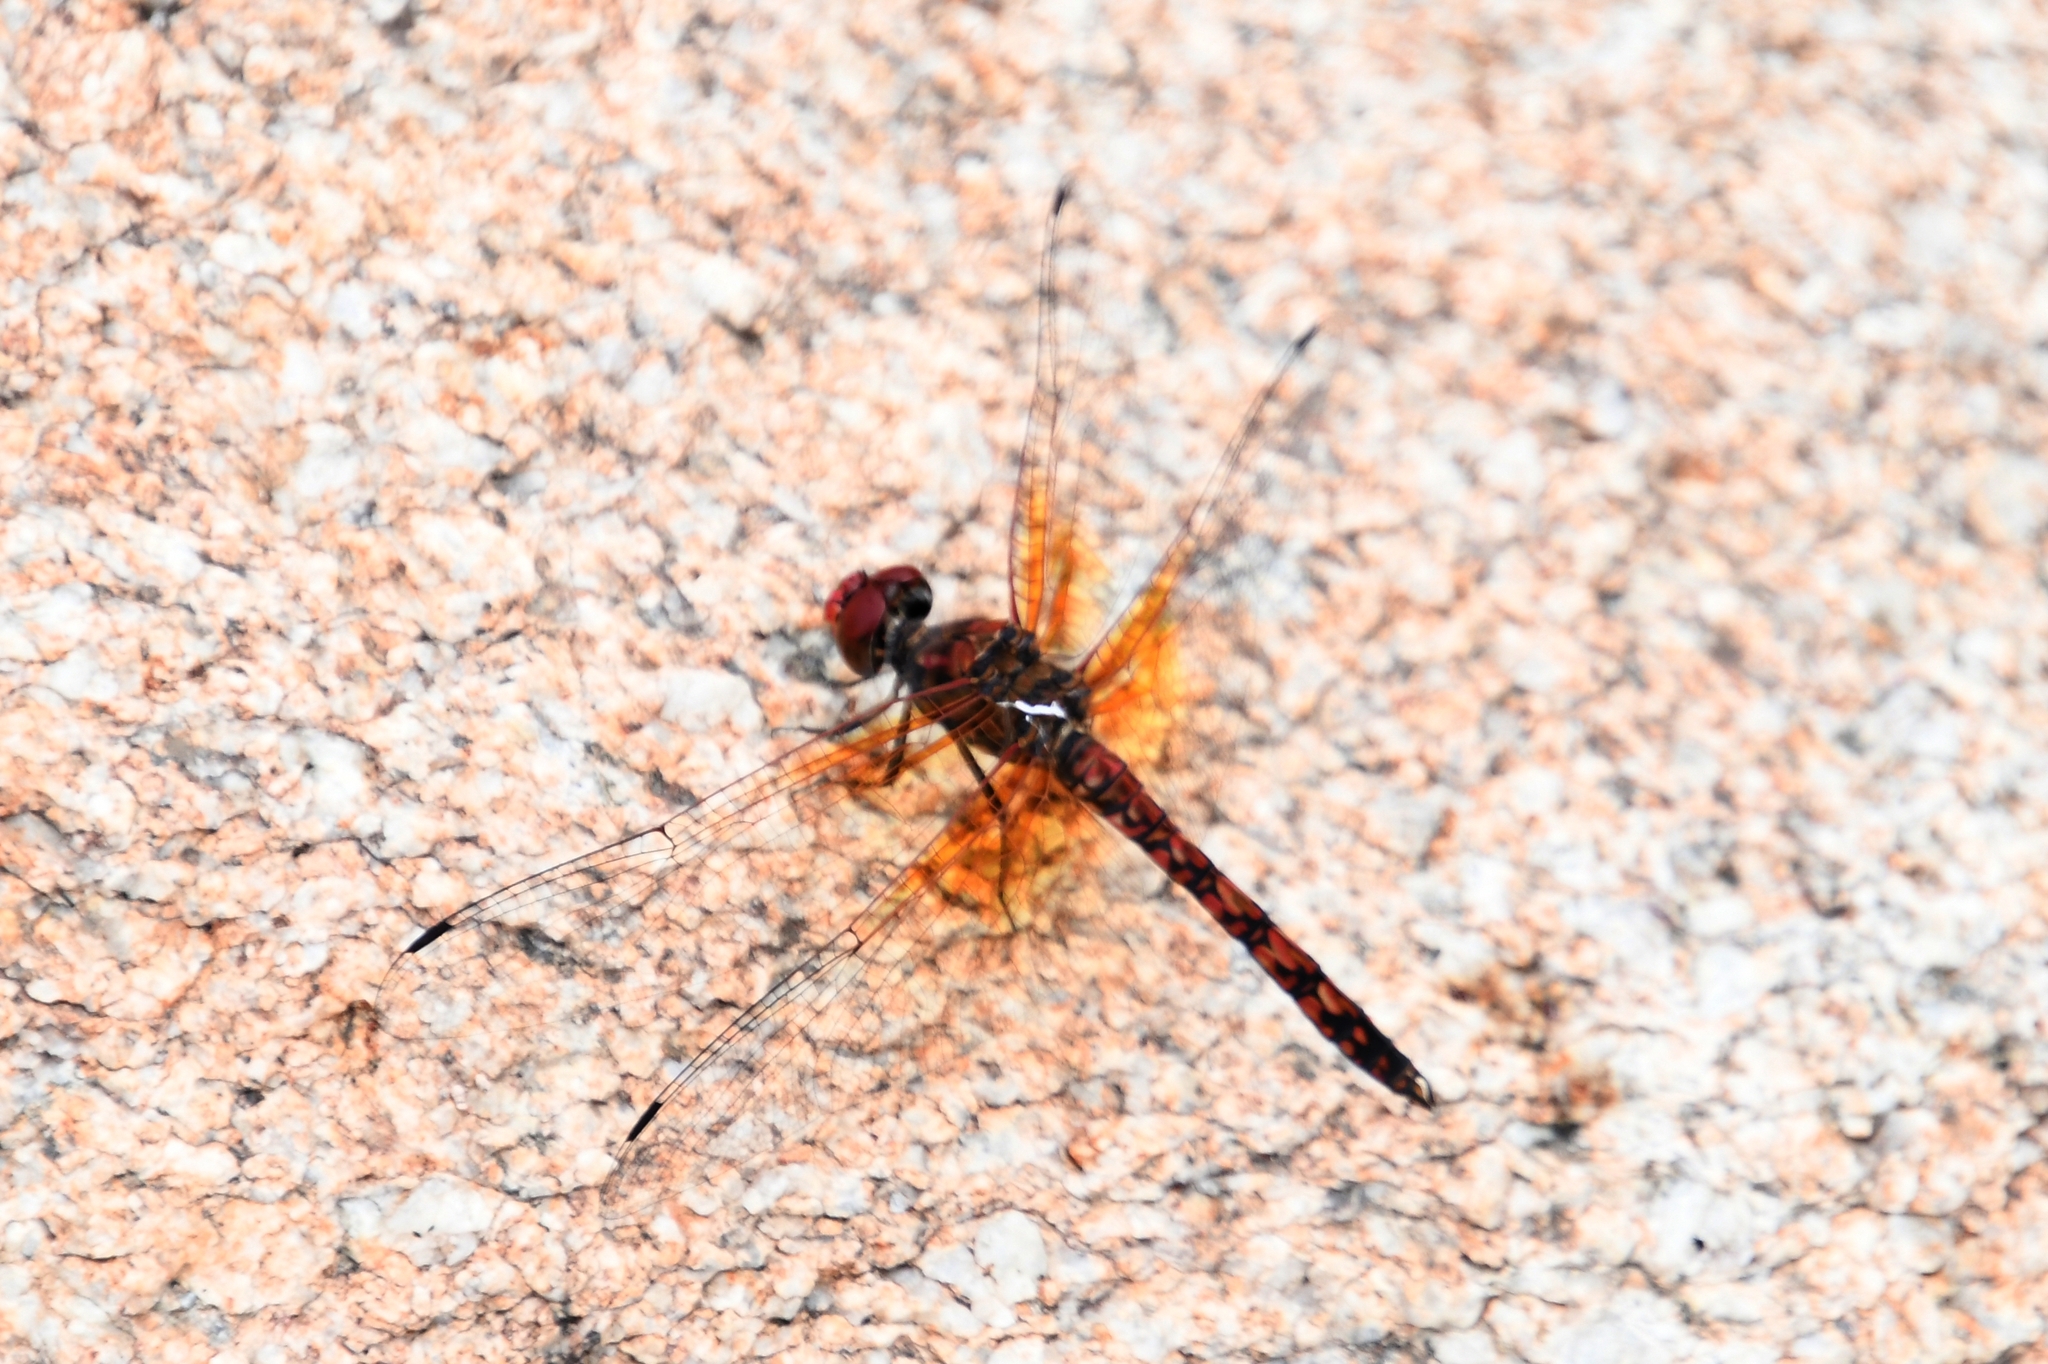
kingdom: Animalia
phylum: Arthropoda
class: Insecta
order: Odonata
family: Libellulidae
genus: Paltothemis
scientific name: Paltothemis lineatipes
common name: Red rock skimmer
